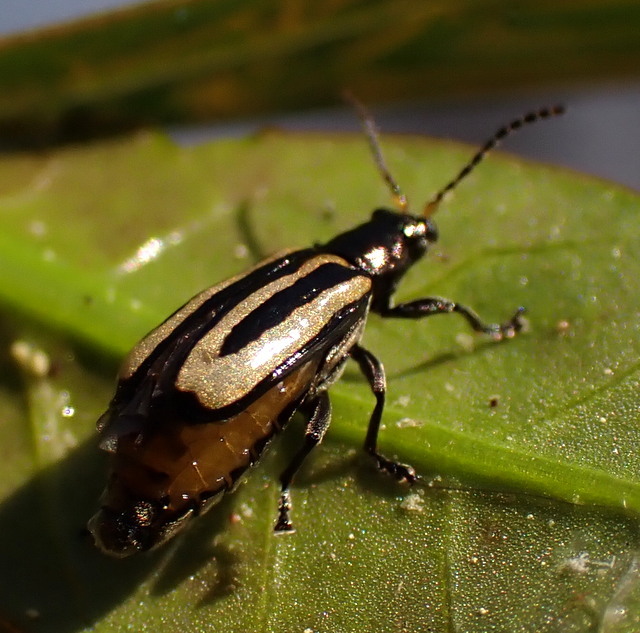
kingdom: Animalia
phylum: Arthropoda
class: Insecta
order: Coleoptera
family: Chrysomelidae
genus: Agasicles
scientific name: Agasicles hygrophila
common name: Alligatorweed flea beetle
